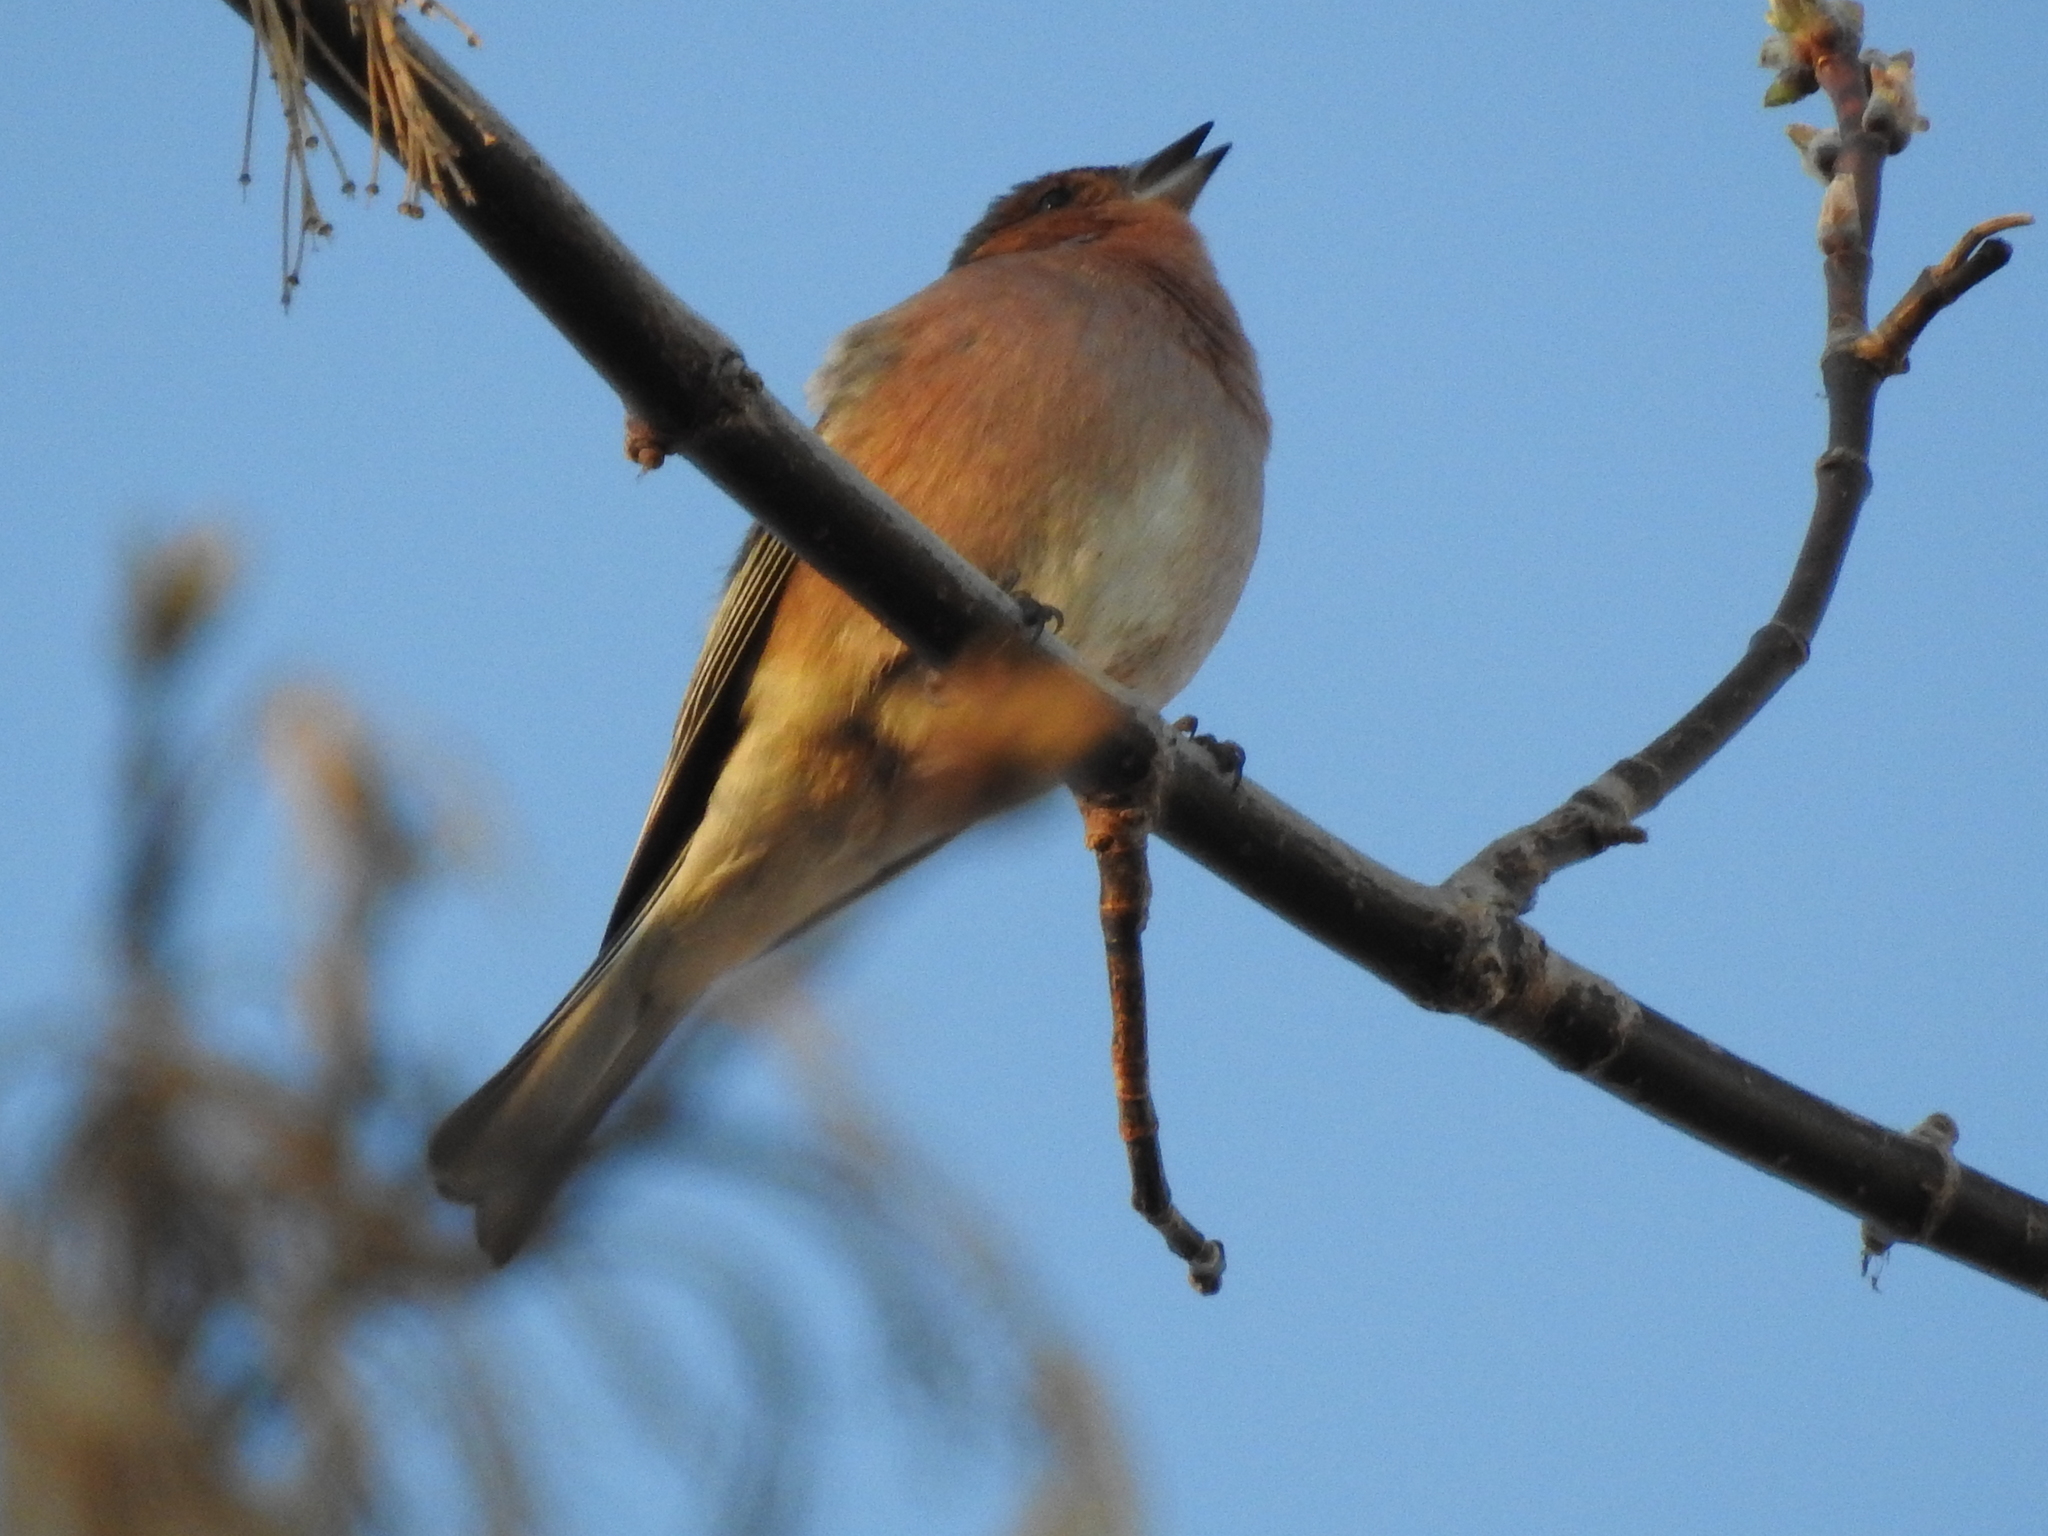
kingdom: Animalia
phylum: Chordata
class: Aves
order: Passeriformes
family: Fringillidae
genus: Fringilla
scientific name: Fringilla coelebs
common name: Common chaffinch
